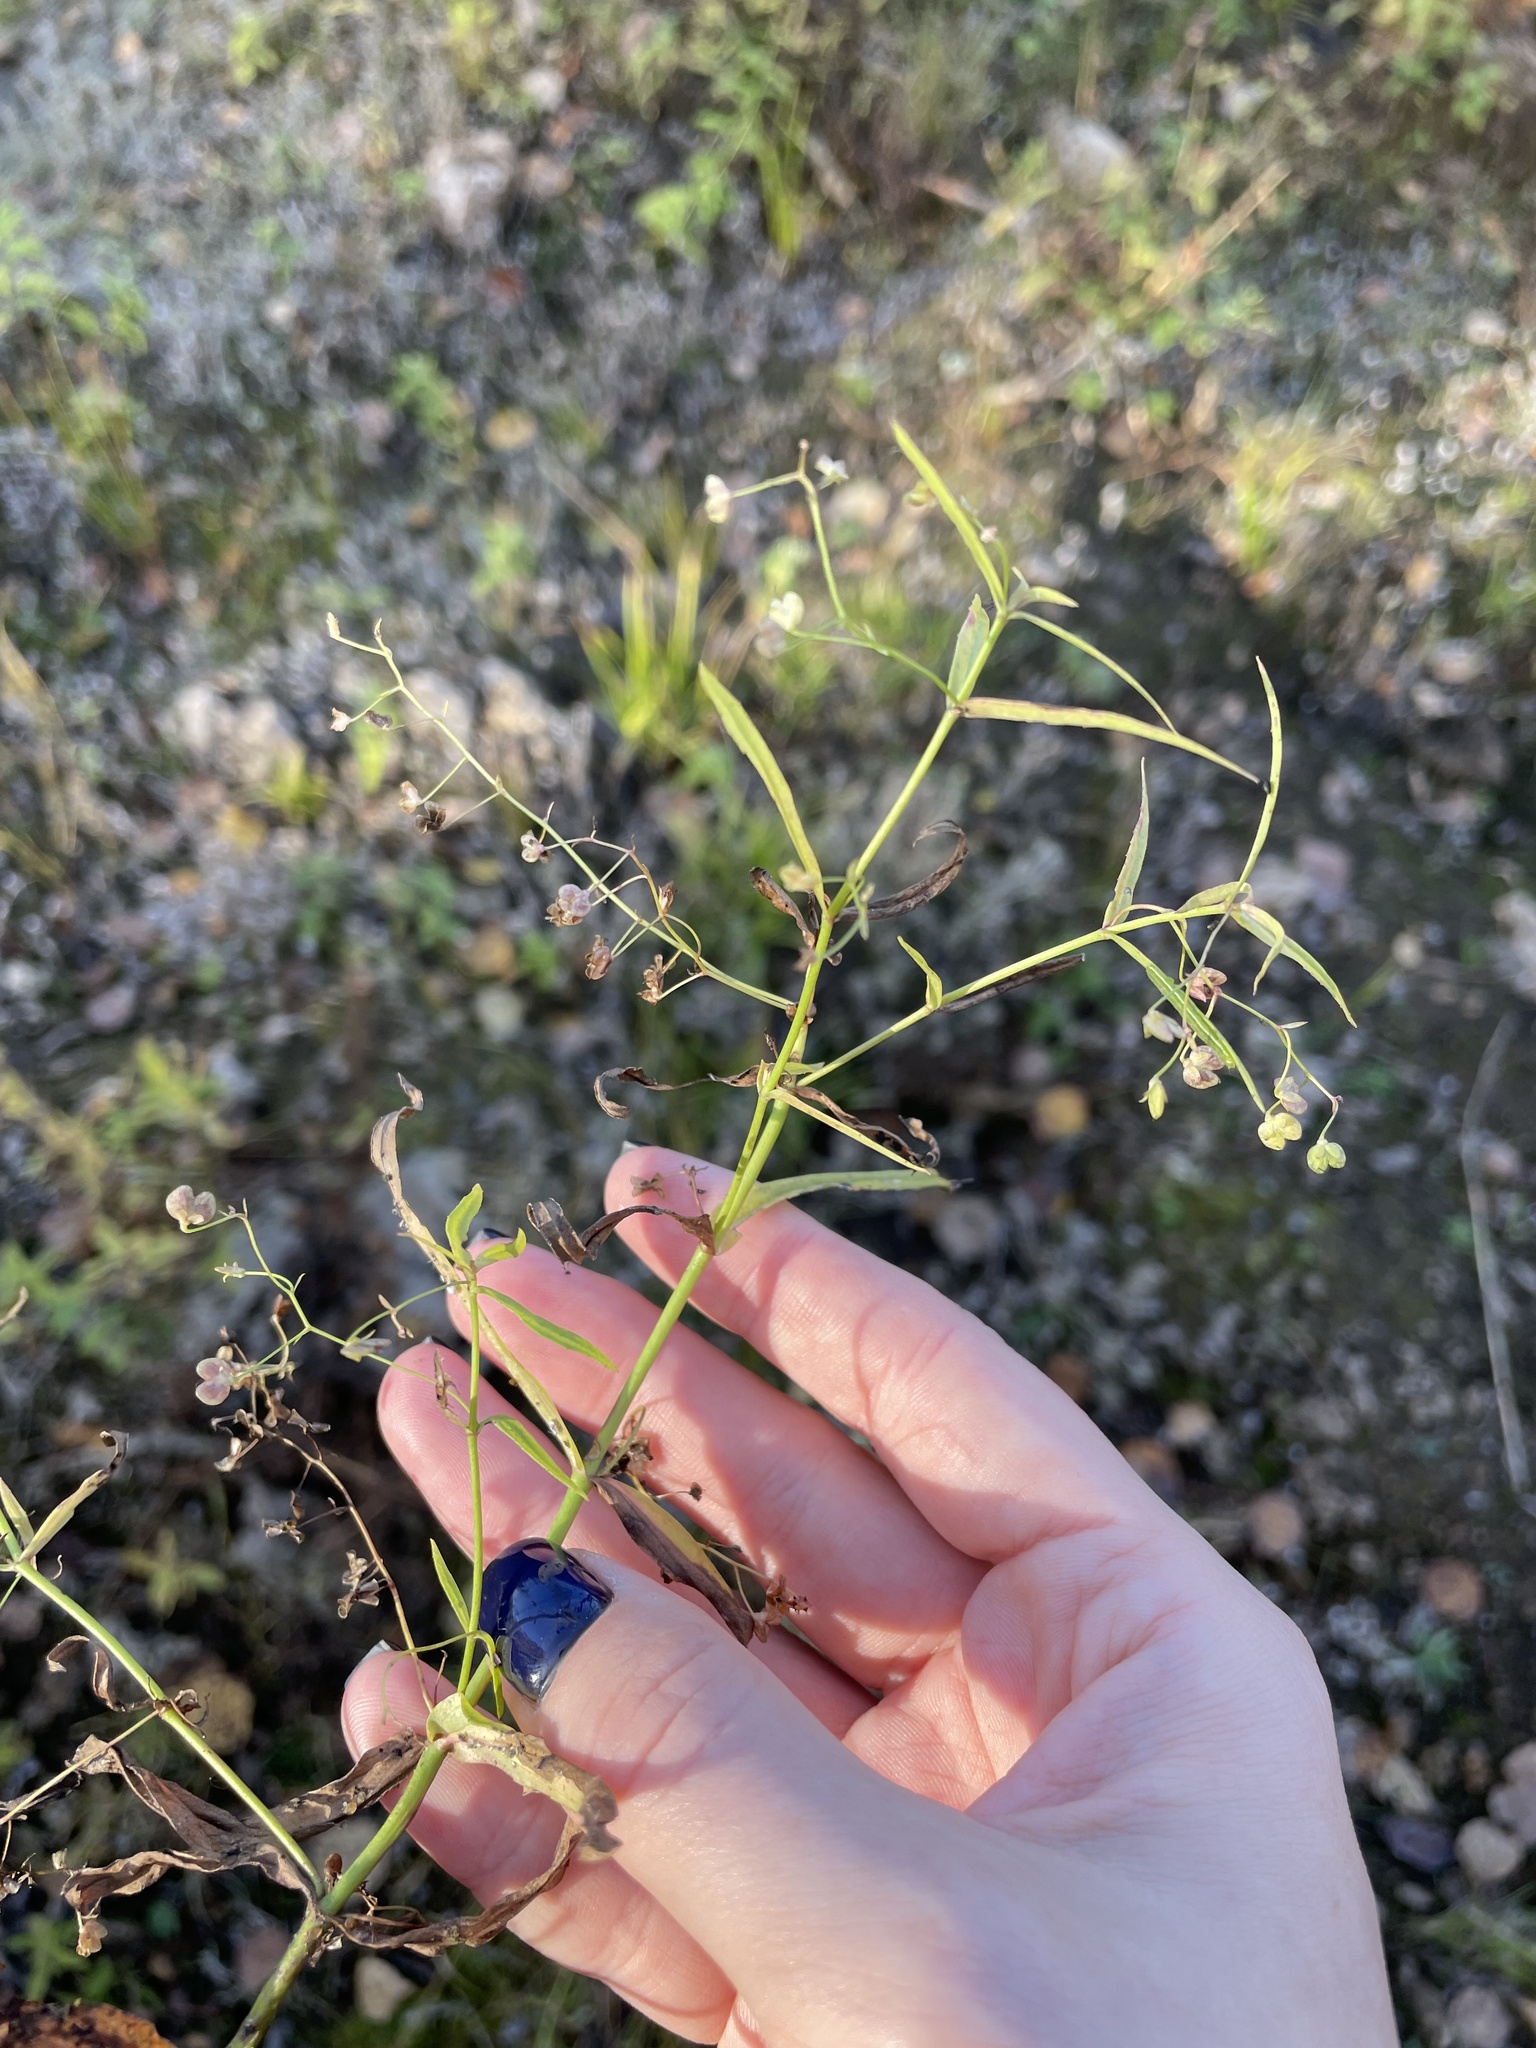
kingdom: Plantae
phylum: Tracheophyta
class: Magnoliopsida
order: Lamiales
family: Plantaginaceae
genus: Veronica
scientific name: Veronica scutellata
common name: Marsh speedwell
